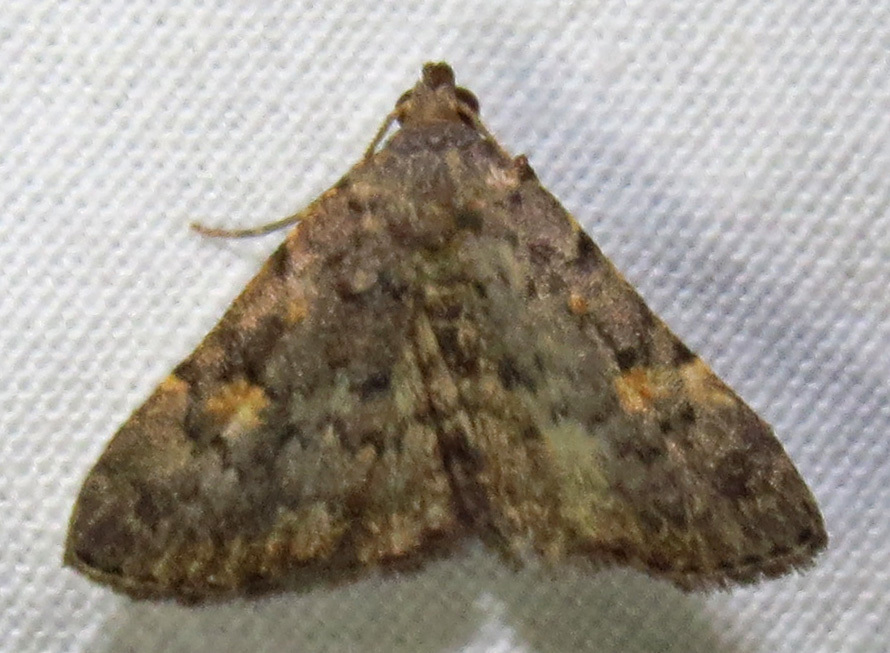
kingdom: Animalia
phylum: Arthropoda
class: Insecta
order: Lepidoptera
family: Erebidae
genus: Idia
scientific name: Idia aemula
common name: Common idia moth
